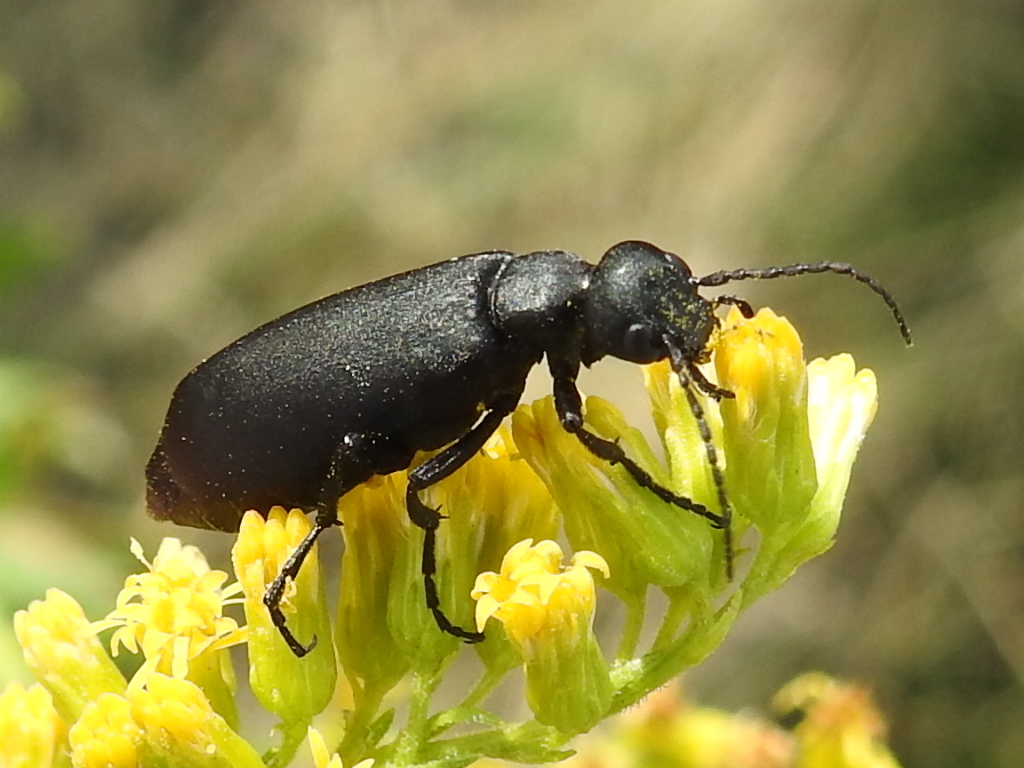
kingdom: Animalia
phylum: Arthropoda
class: Insecta
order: Coleoptera
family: Meloidae
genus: Epicauta
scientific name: Epicauta pensylvanica
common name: Black blister beetle
